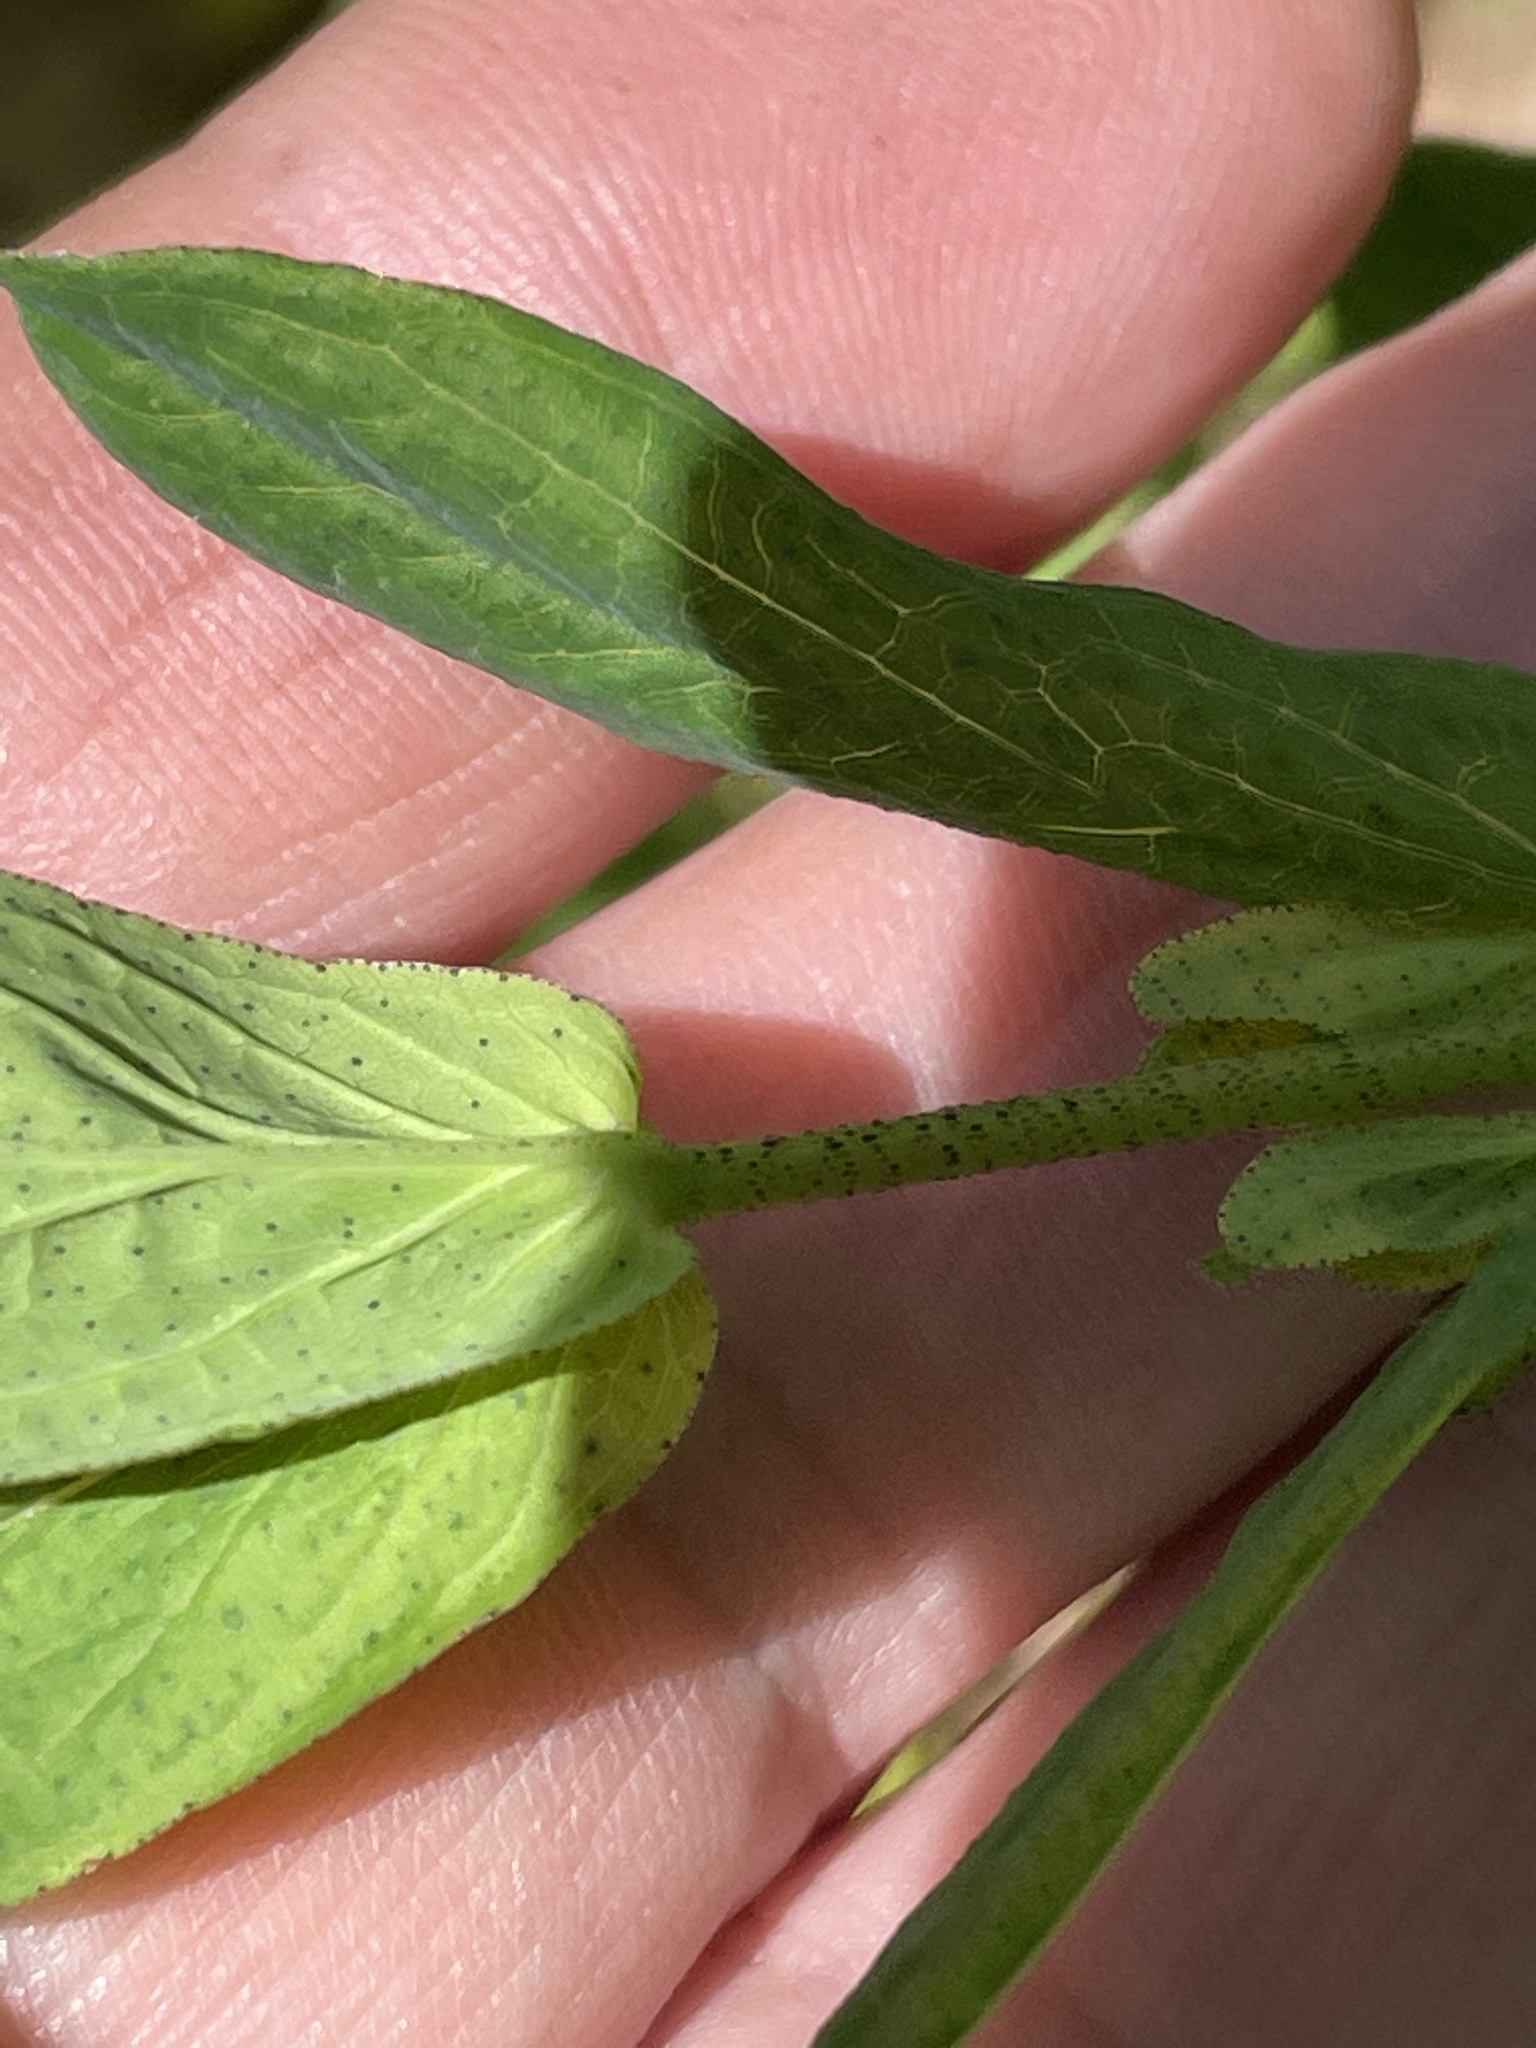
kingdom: Plantae
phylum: Tracheophyta
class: Magnoliopsida
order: Malpighiales
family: Hypericaceae
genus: Hypericum
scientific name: Hypericum punctatum
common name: Spotted st. john's-wort
